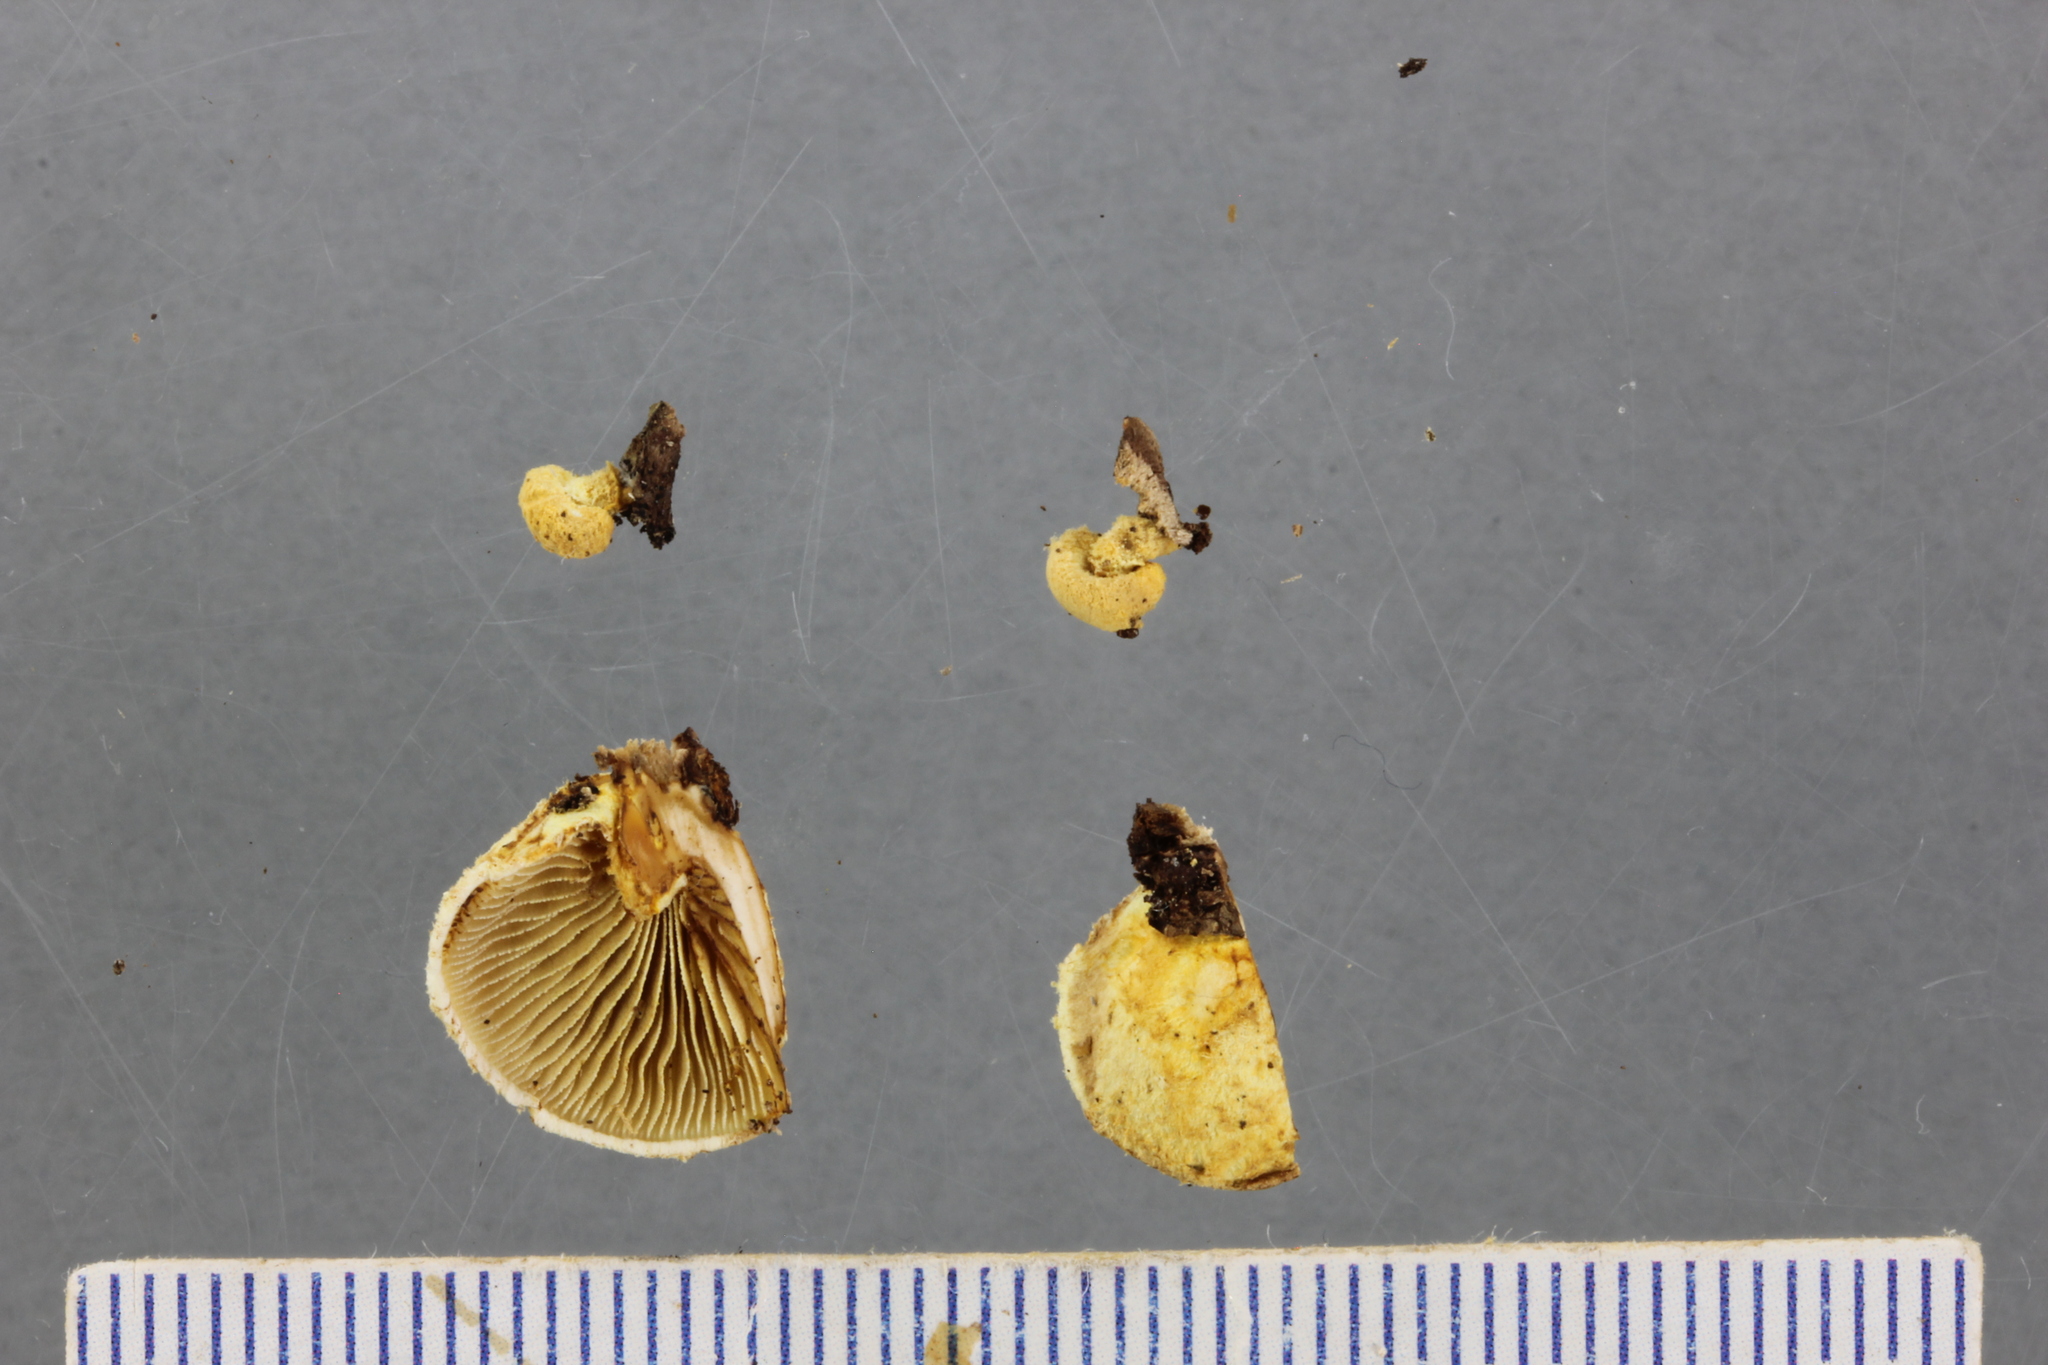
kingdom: Fungi
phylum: Basidiomycota
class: Agaricomycetes
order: Agaricales
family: Crepidotaceae
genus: Pleuroflammula
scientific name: Pleuroflammula praestans
